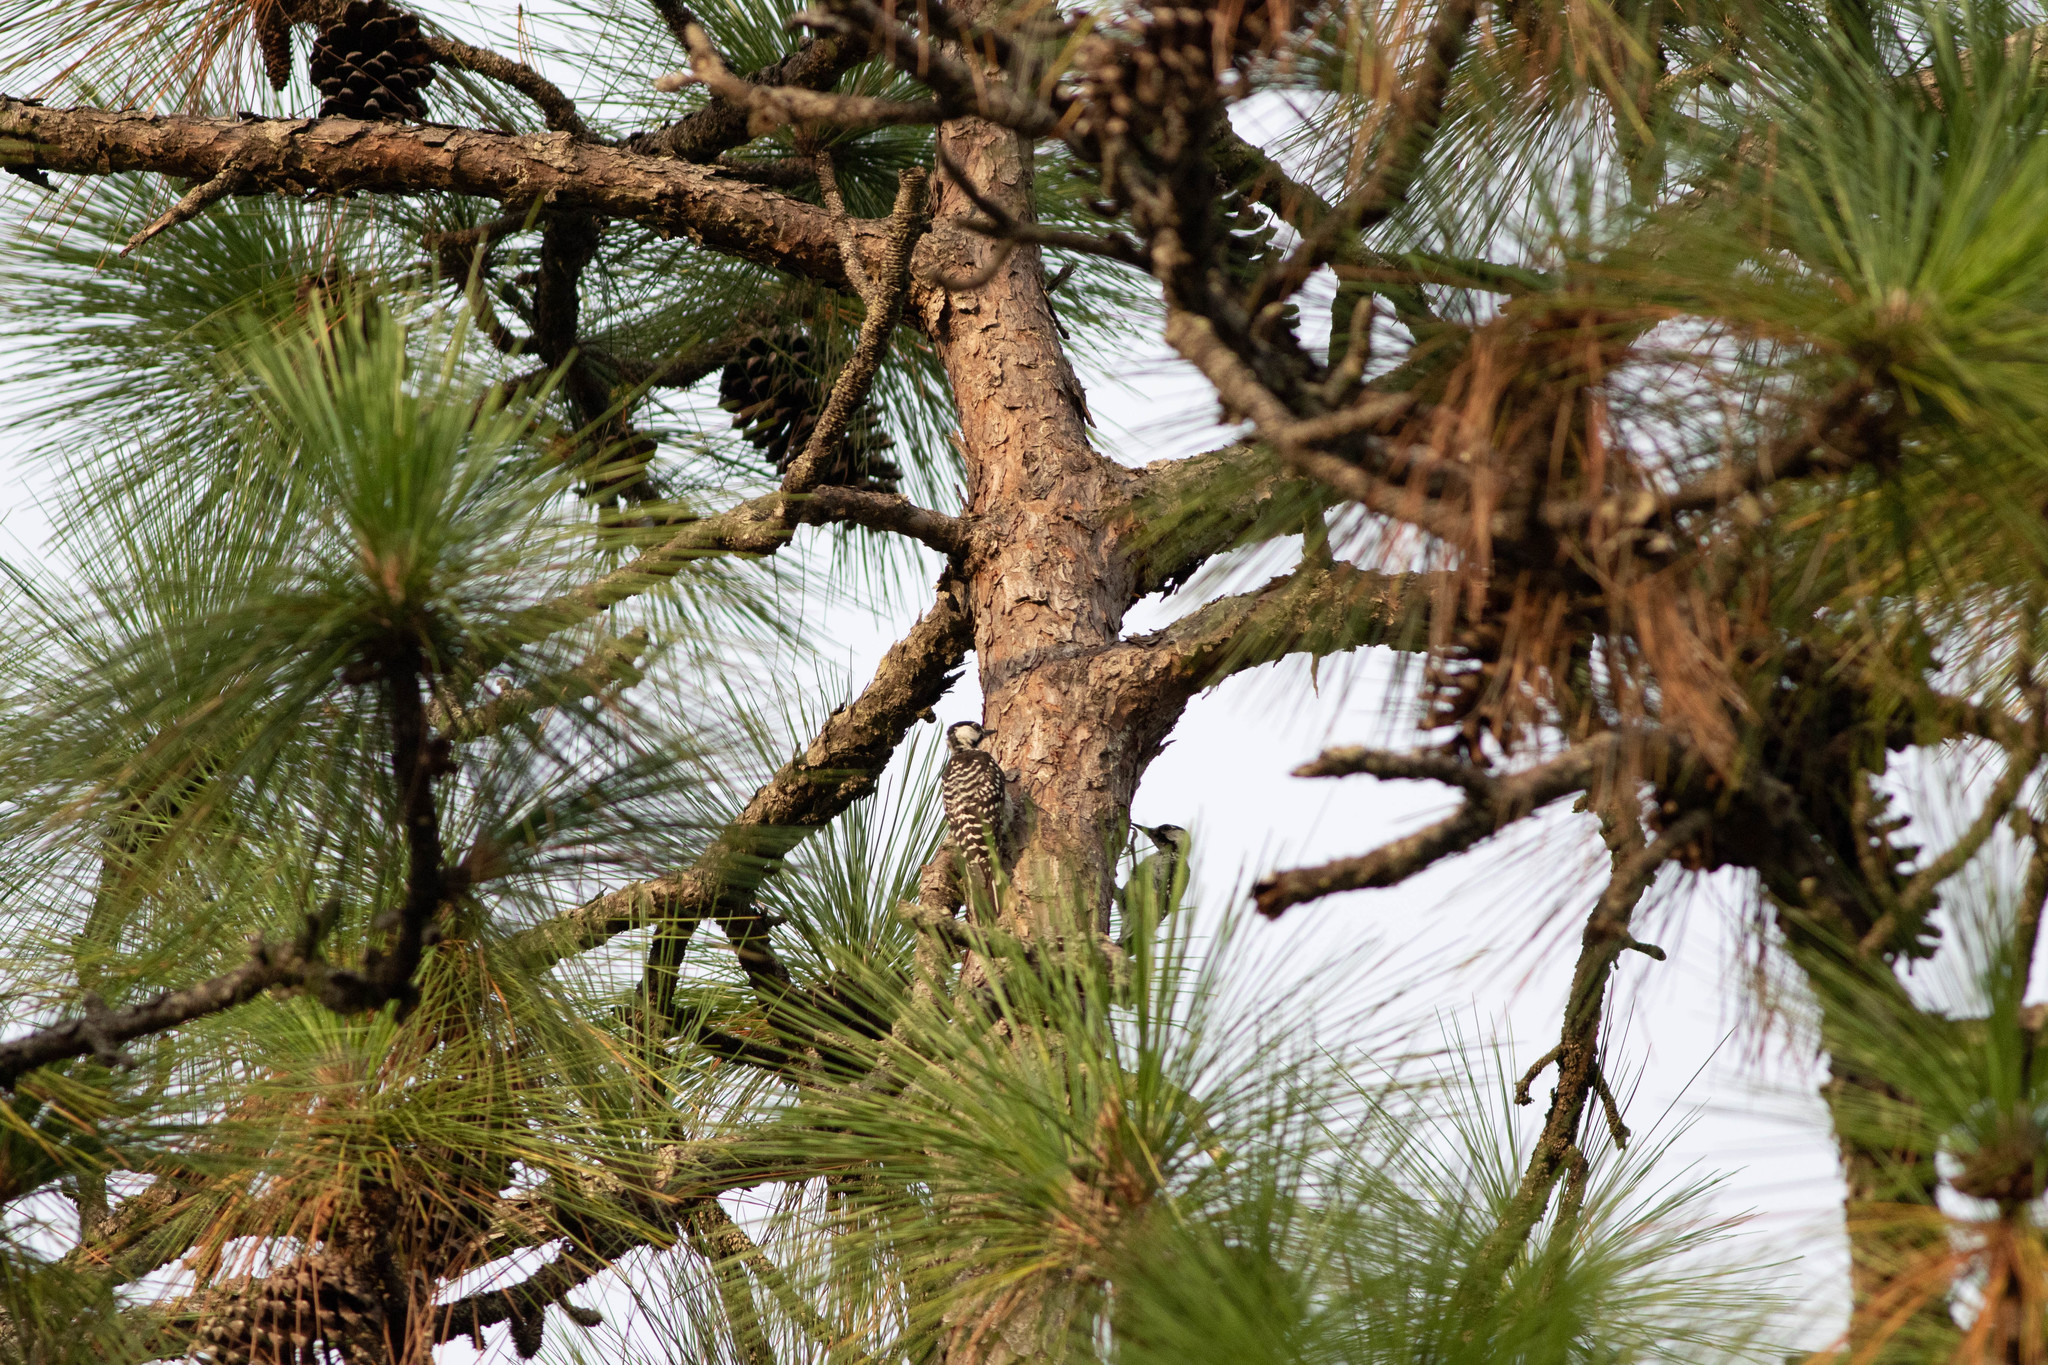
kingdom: Animalia
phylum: Chordata
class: Aves
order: Piciformes
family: Picidae
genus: Leuconotopicus
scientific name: Leuconotopicus borealis
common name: Red-cockaded woodpecker
